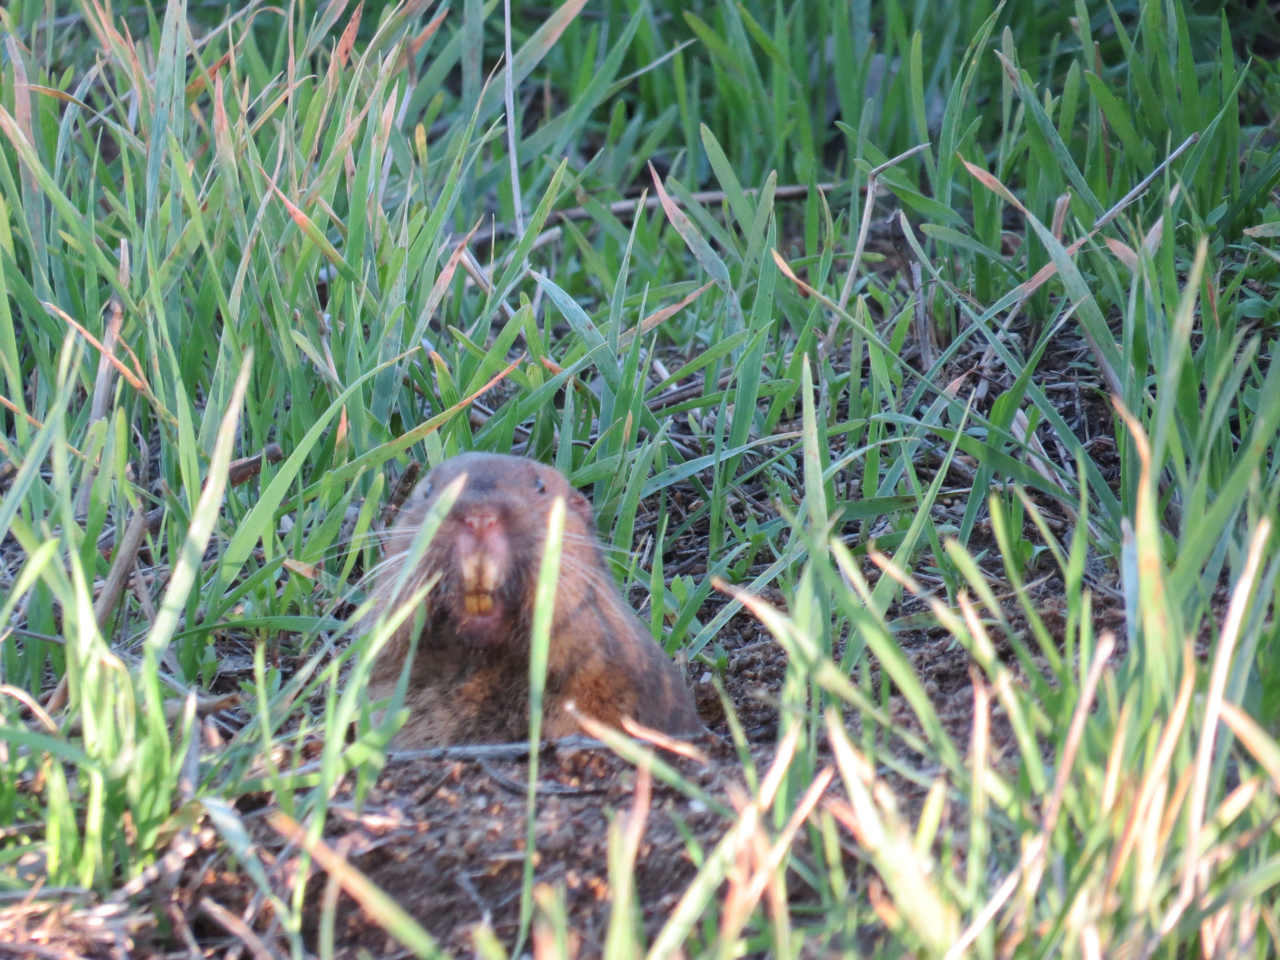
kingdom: Animalia
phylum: Chordata
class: Mammalia
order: Rodentia
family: Geomyidae
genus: Thomomys
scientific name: Thomomys bottae
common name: Botta's pocket gopher
